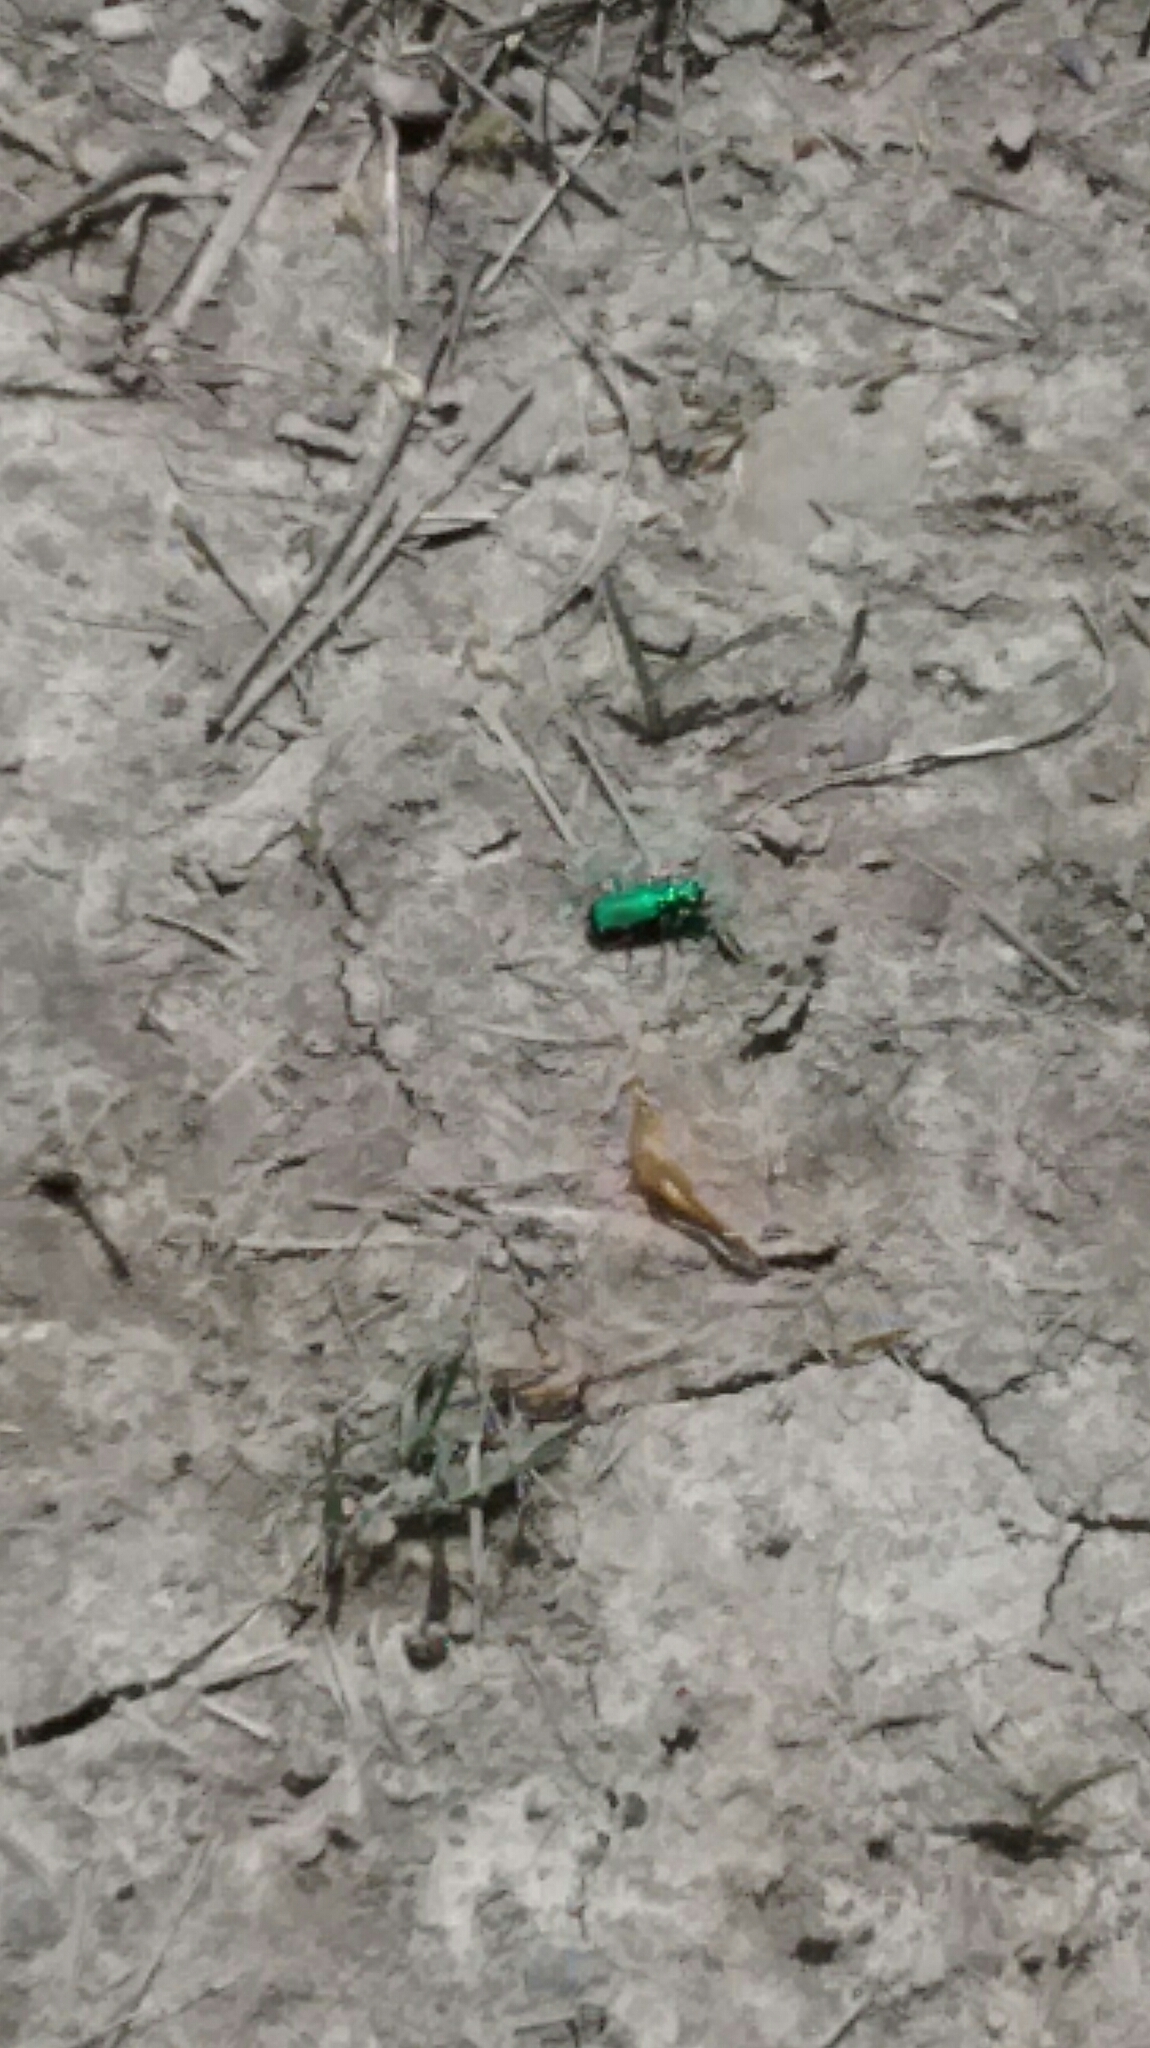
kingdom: Animalia
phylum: Arthropoda
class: Insecta
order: Coleoptera
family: Carabidae
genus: Cicindela
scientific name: Cicindela sexguttata
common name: Six-spotted tiger beetle
